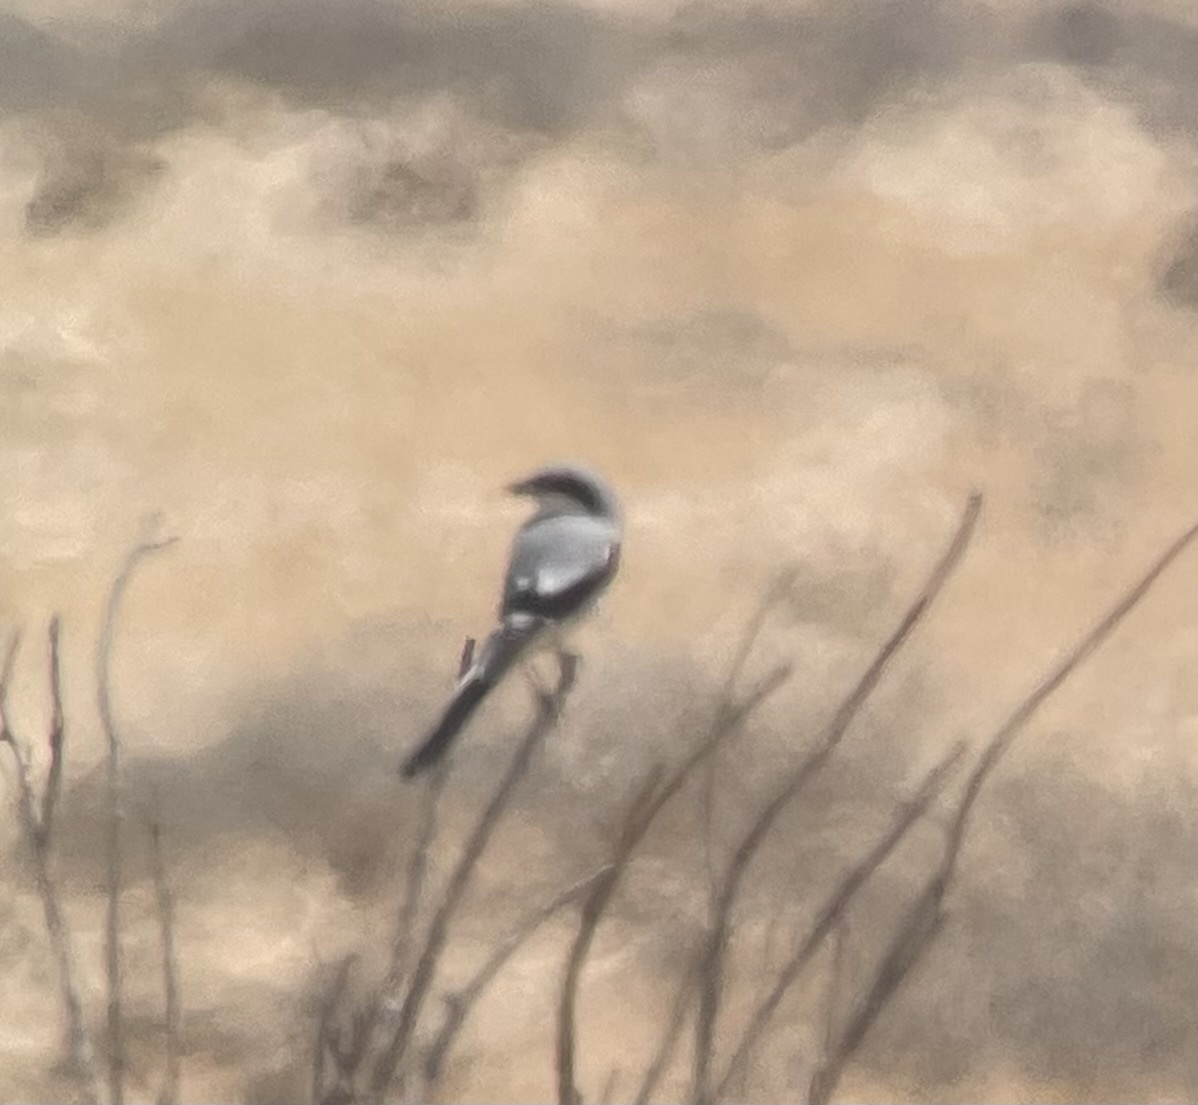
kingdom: Animalia
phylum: Chordata
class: Aves
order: Passeriformes
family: Laniidae
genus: Lanius
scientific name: Lanius excubitor
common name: Great grey shrike
